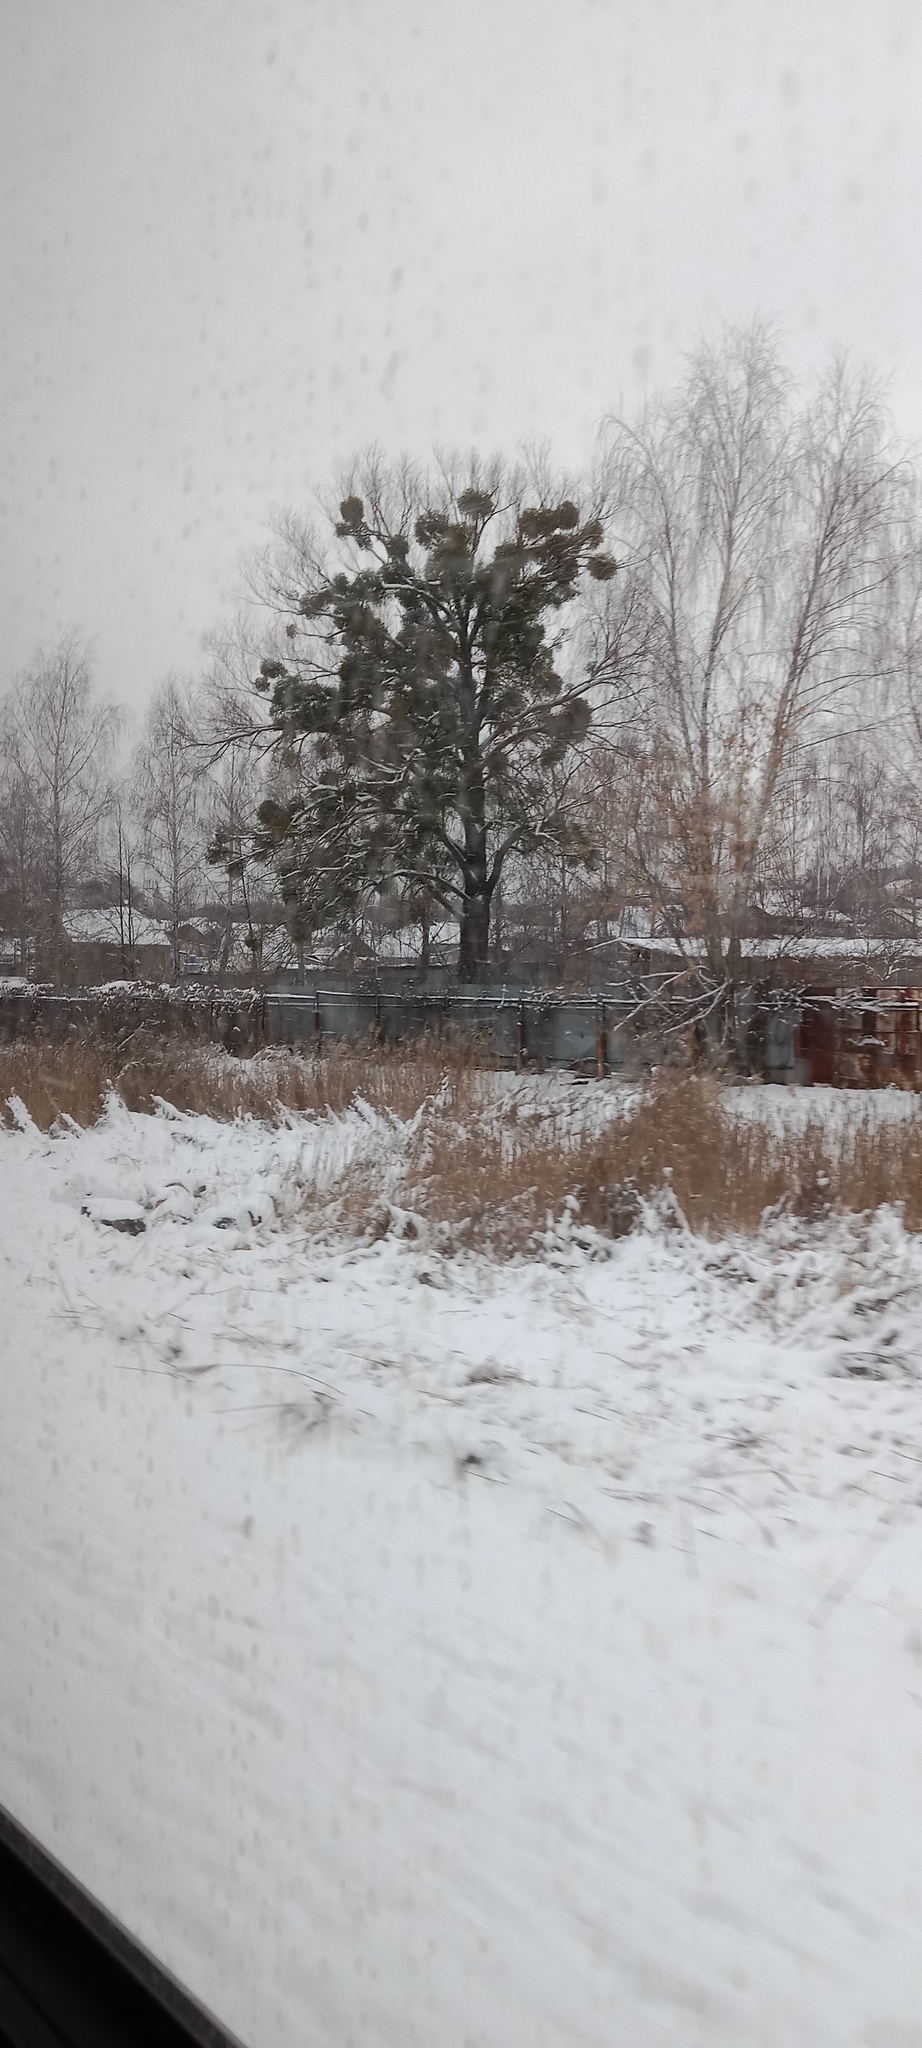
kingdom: Plantae
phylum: Tracheophyta
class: Magnoliopsida
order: Santalales
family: Viscaceae
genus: Viscum
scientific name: Viscum album
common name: Mistletoe
